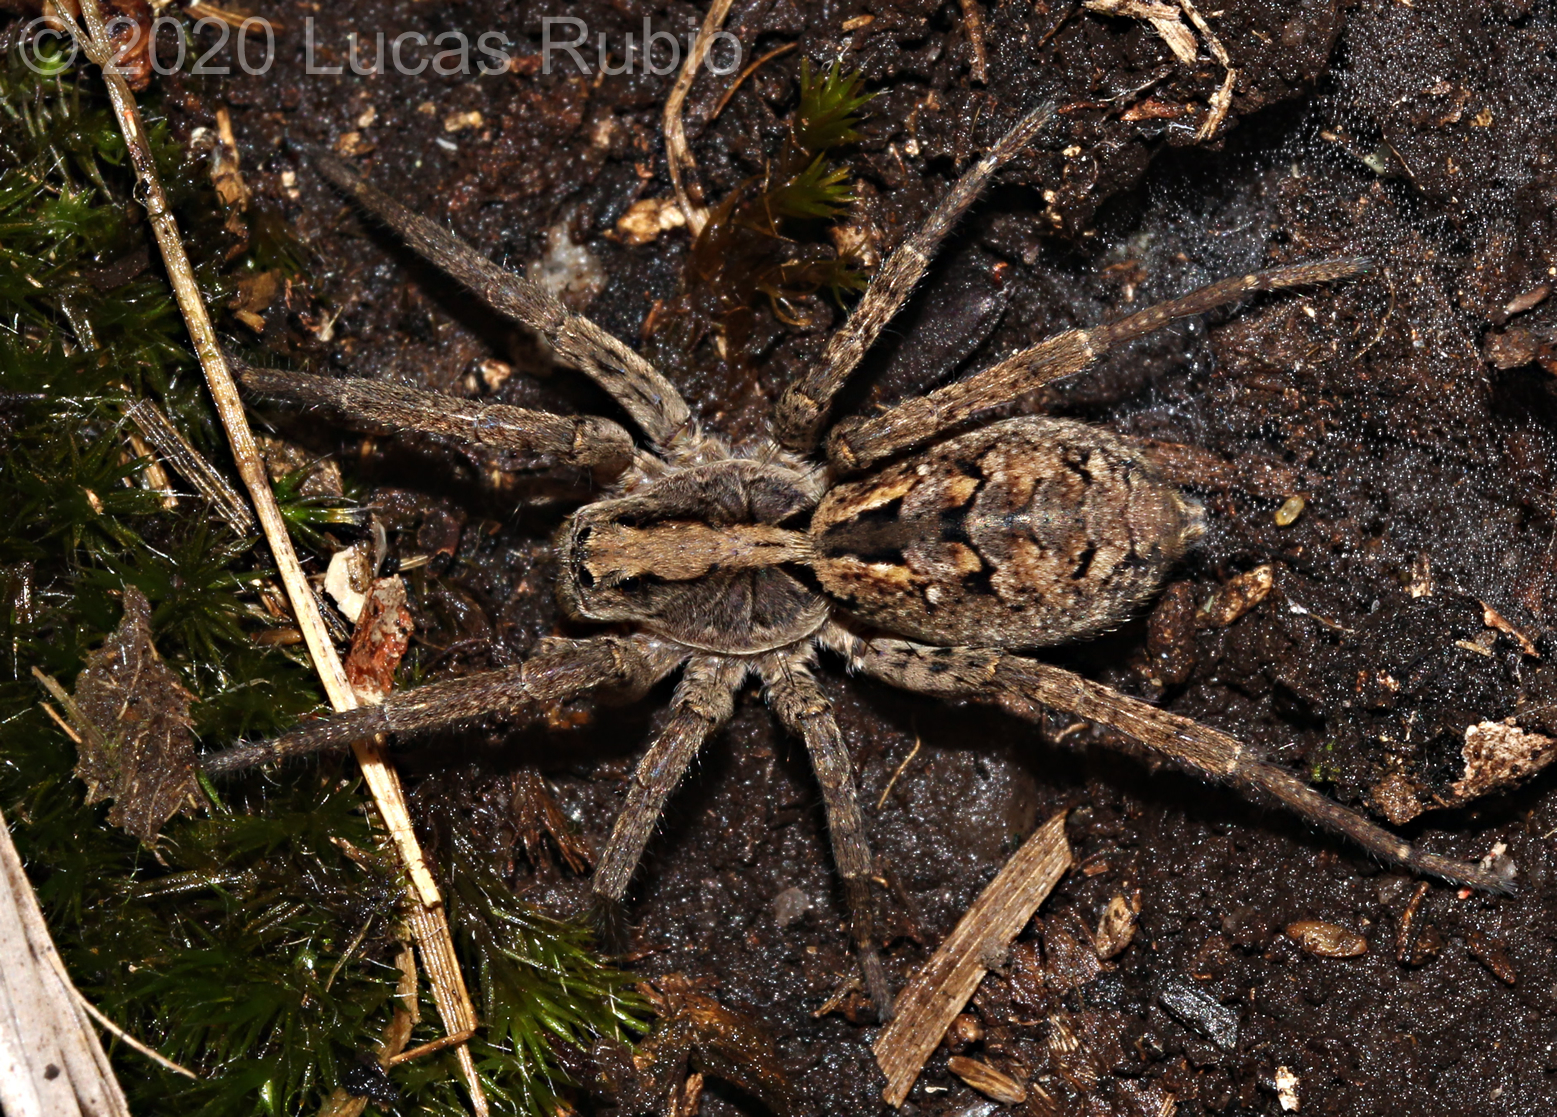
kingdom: Animalia
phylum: Arthropoda
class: Arachnida
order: Araneae
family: Lycosidae
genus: Schizocosa
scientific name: Schizocosa malitiosa
